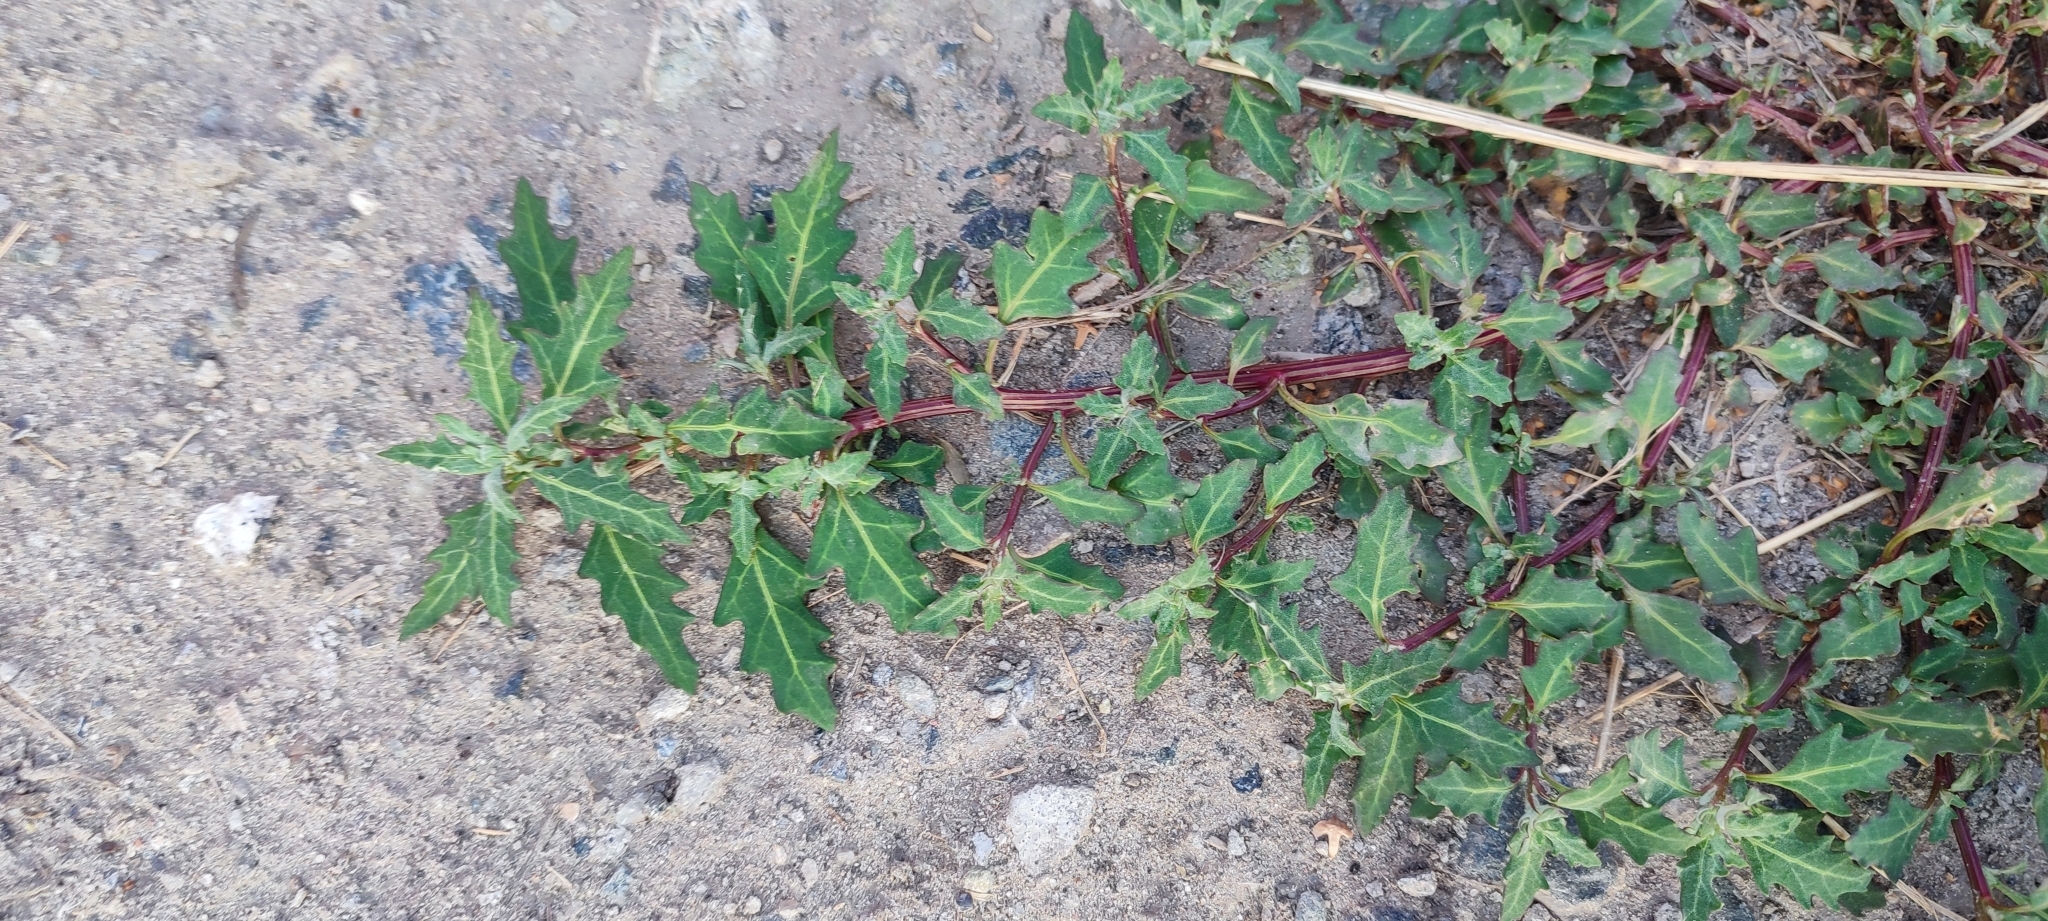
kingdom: Plantae
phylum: Tracheophyta
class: Magnoliopsida
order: Caryophyllales
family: Amaranthaceae
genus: Oxybasis
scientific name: Oxybasis glauca
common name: Glaucous goosefoot
